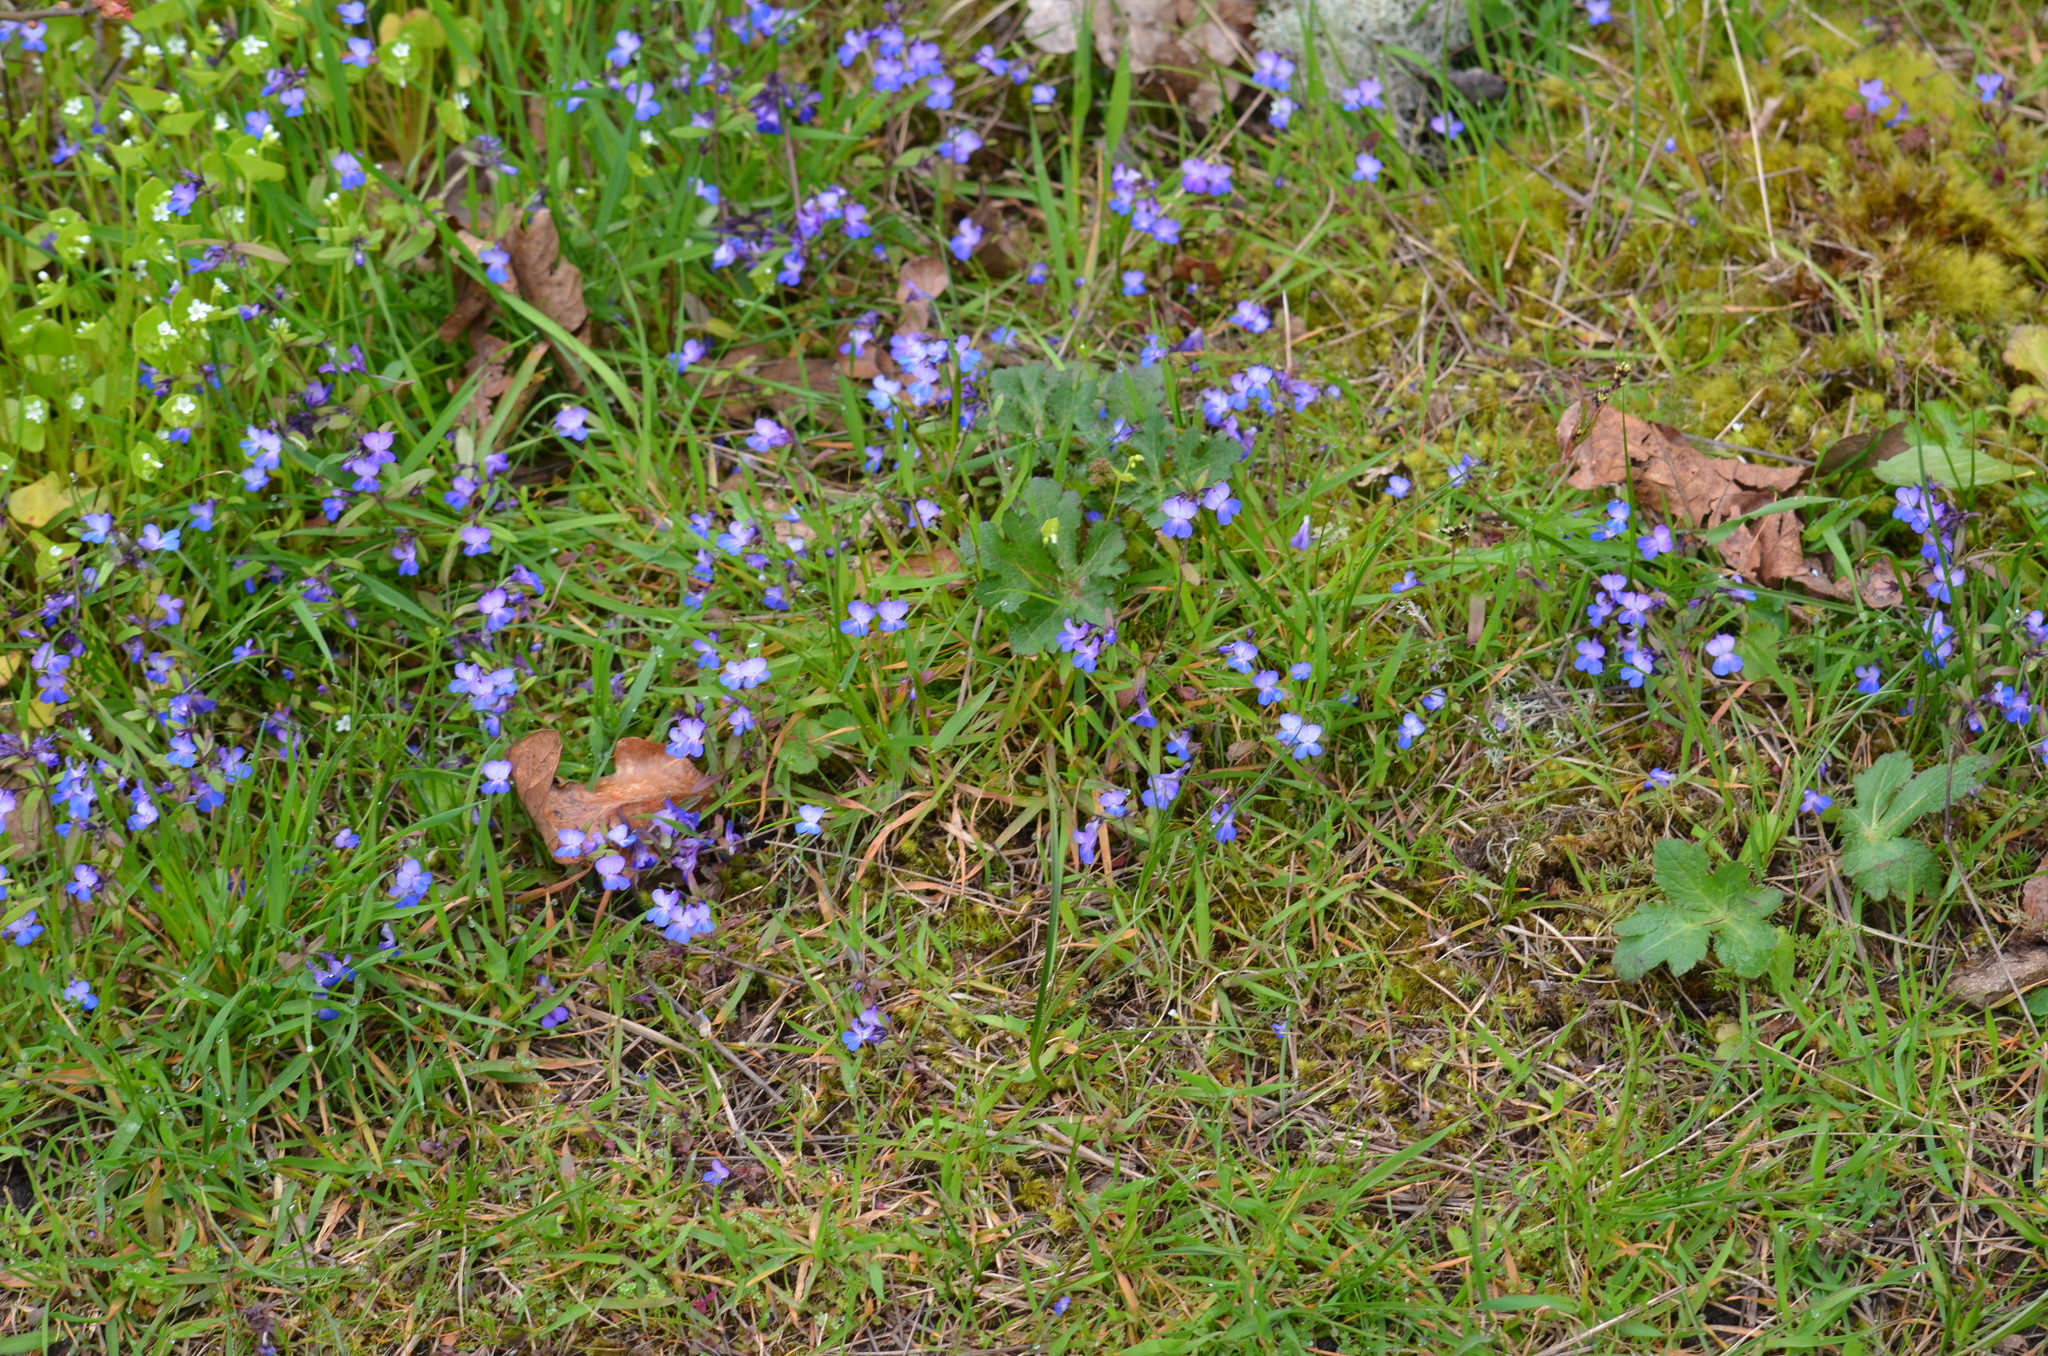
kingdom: Plantae
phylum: Tracheophyta
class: Magnoliopsida
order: Lamiales
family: Plantaginaceae
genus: Collinsia
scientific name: Collinsia grandiflora
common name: Large-flower blue-eyed-mary
